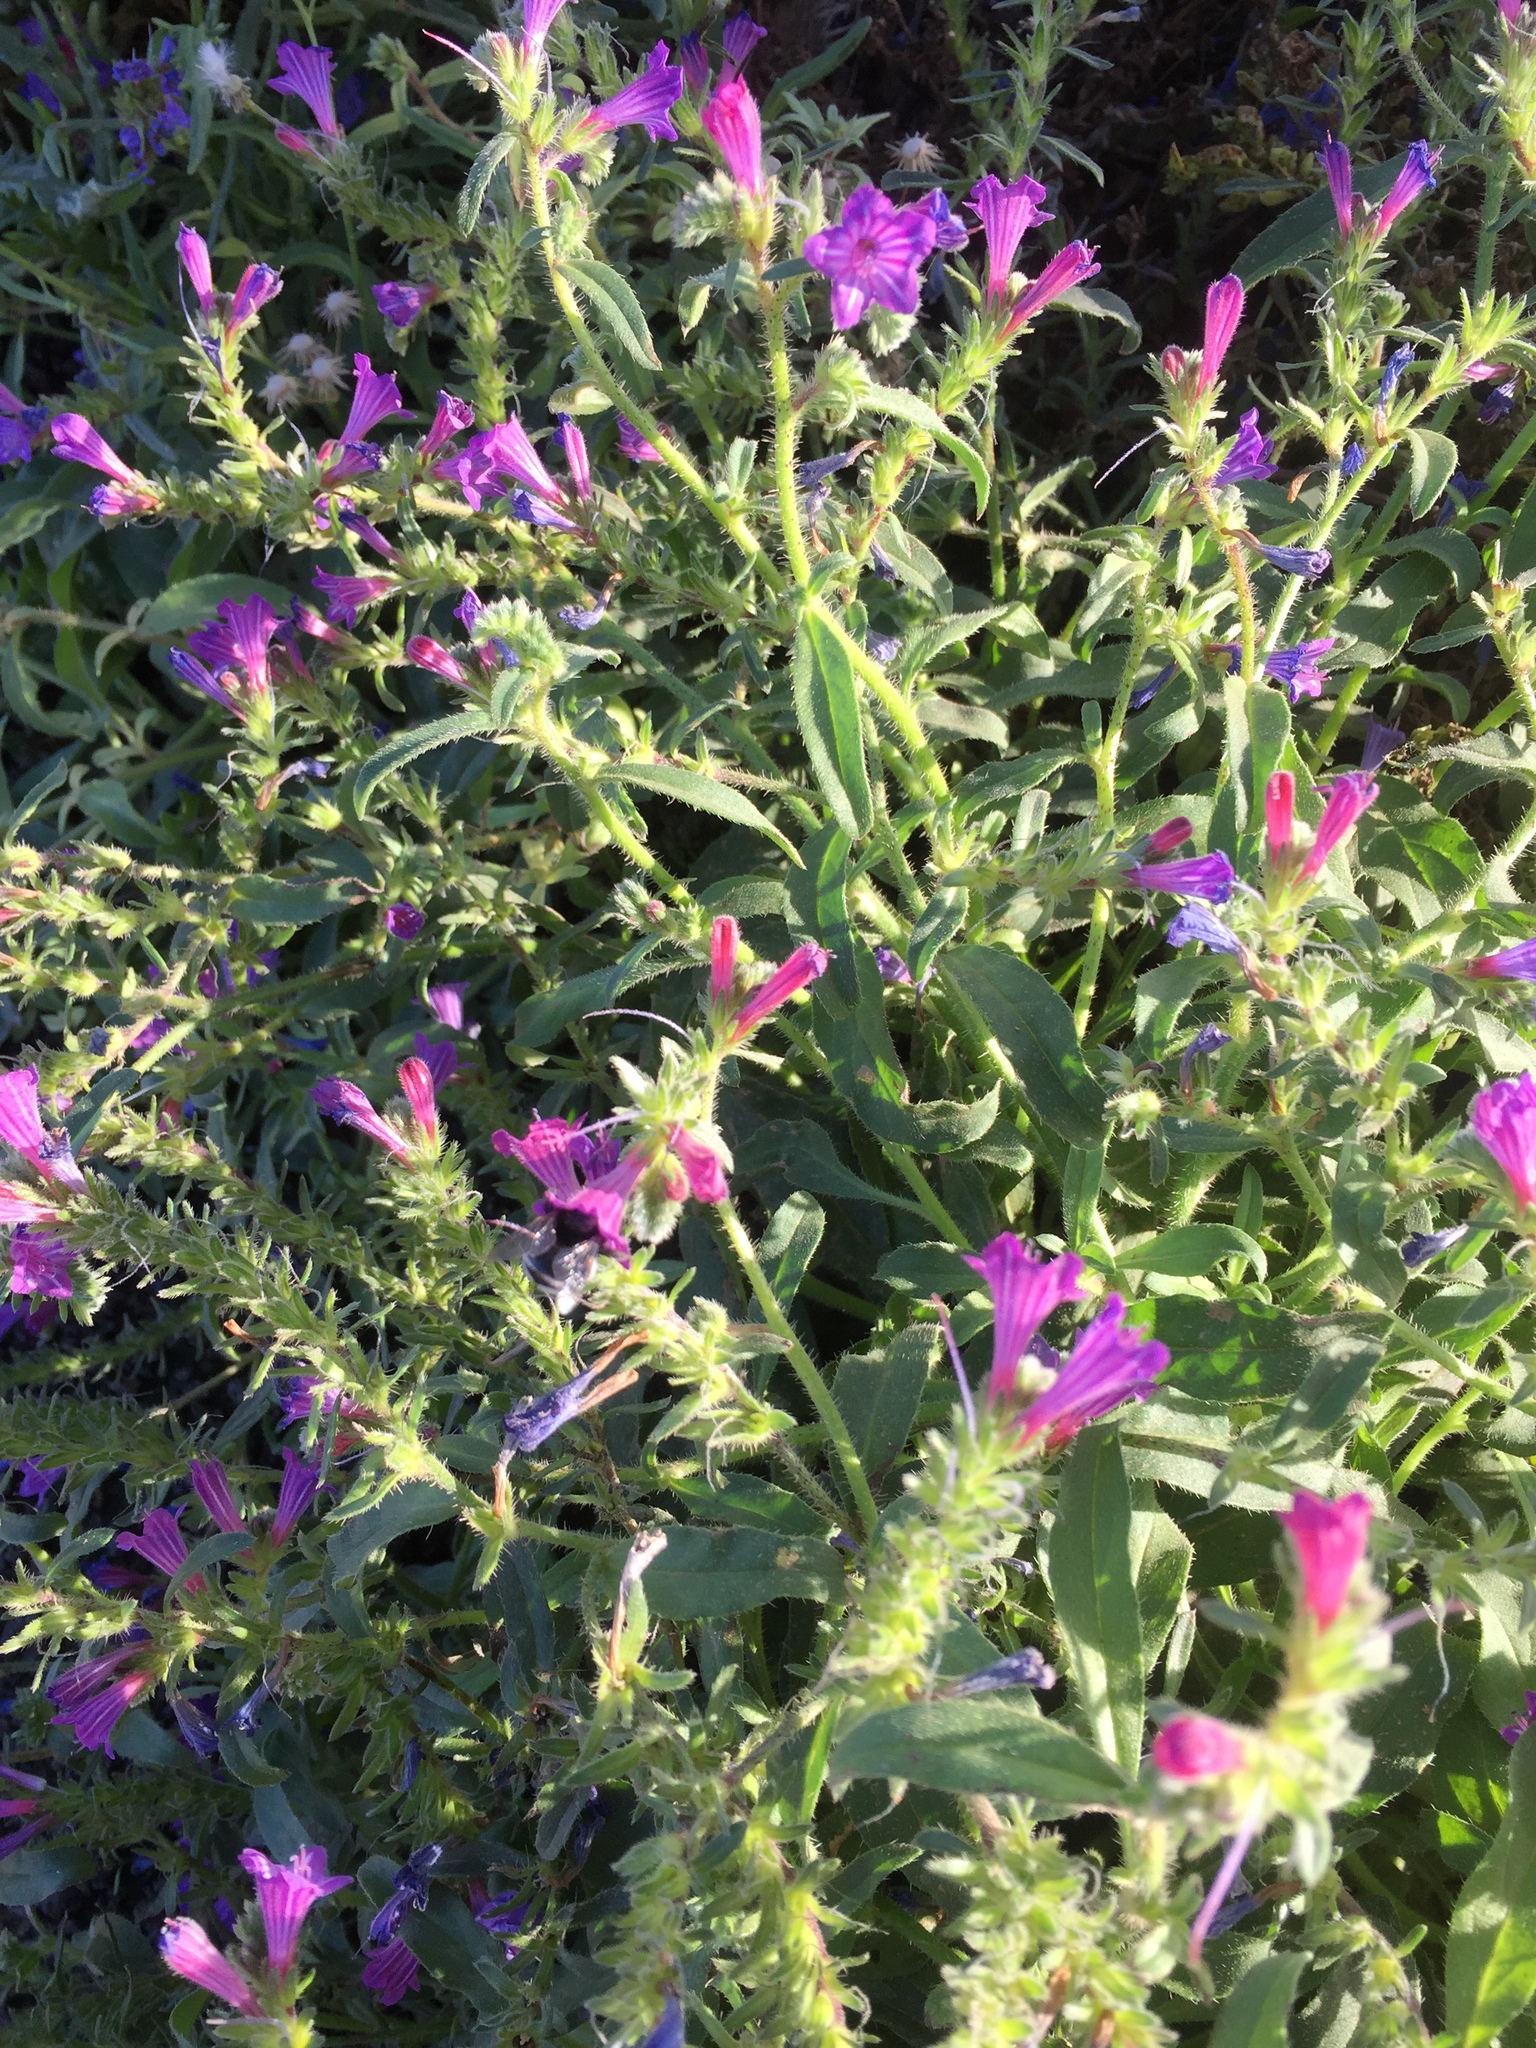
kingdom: Plantae
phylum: Tracheophyta
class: Magnoliopsida
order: Boraginales
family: Boraginaceae
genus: Echium
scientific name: Echium pitardii
